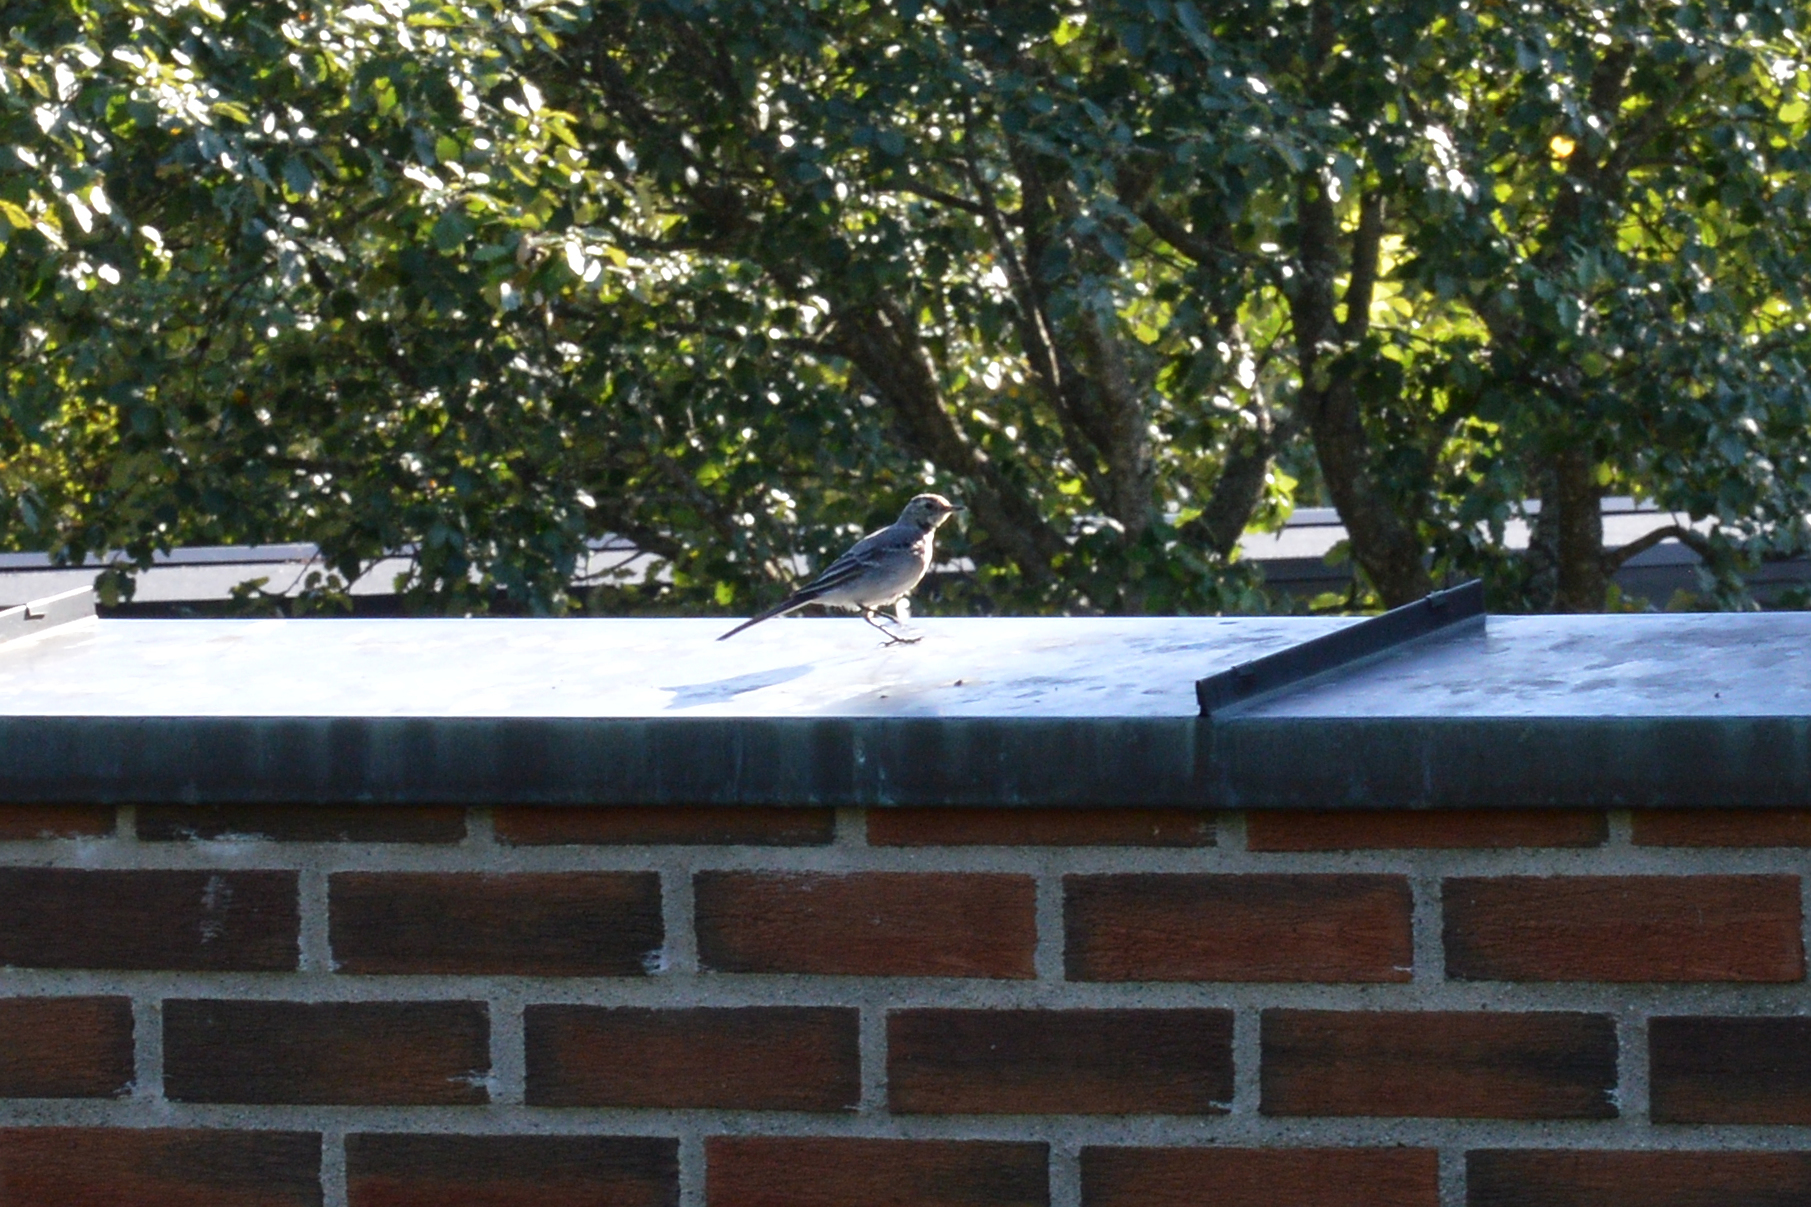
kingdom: Animalia
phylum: Chordata
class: Aves
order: Passeriformes
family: Motacillidae
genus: Motacilla
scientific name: Motacilla alba
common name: White wagtail
